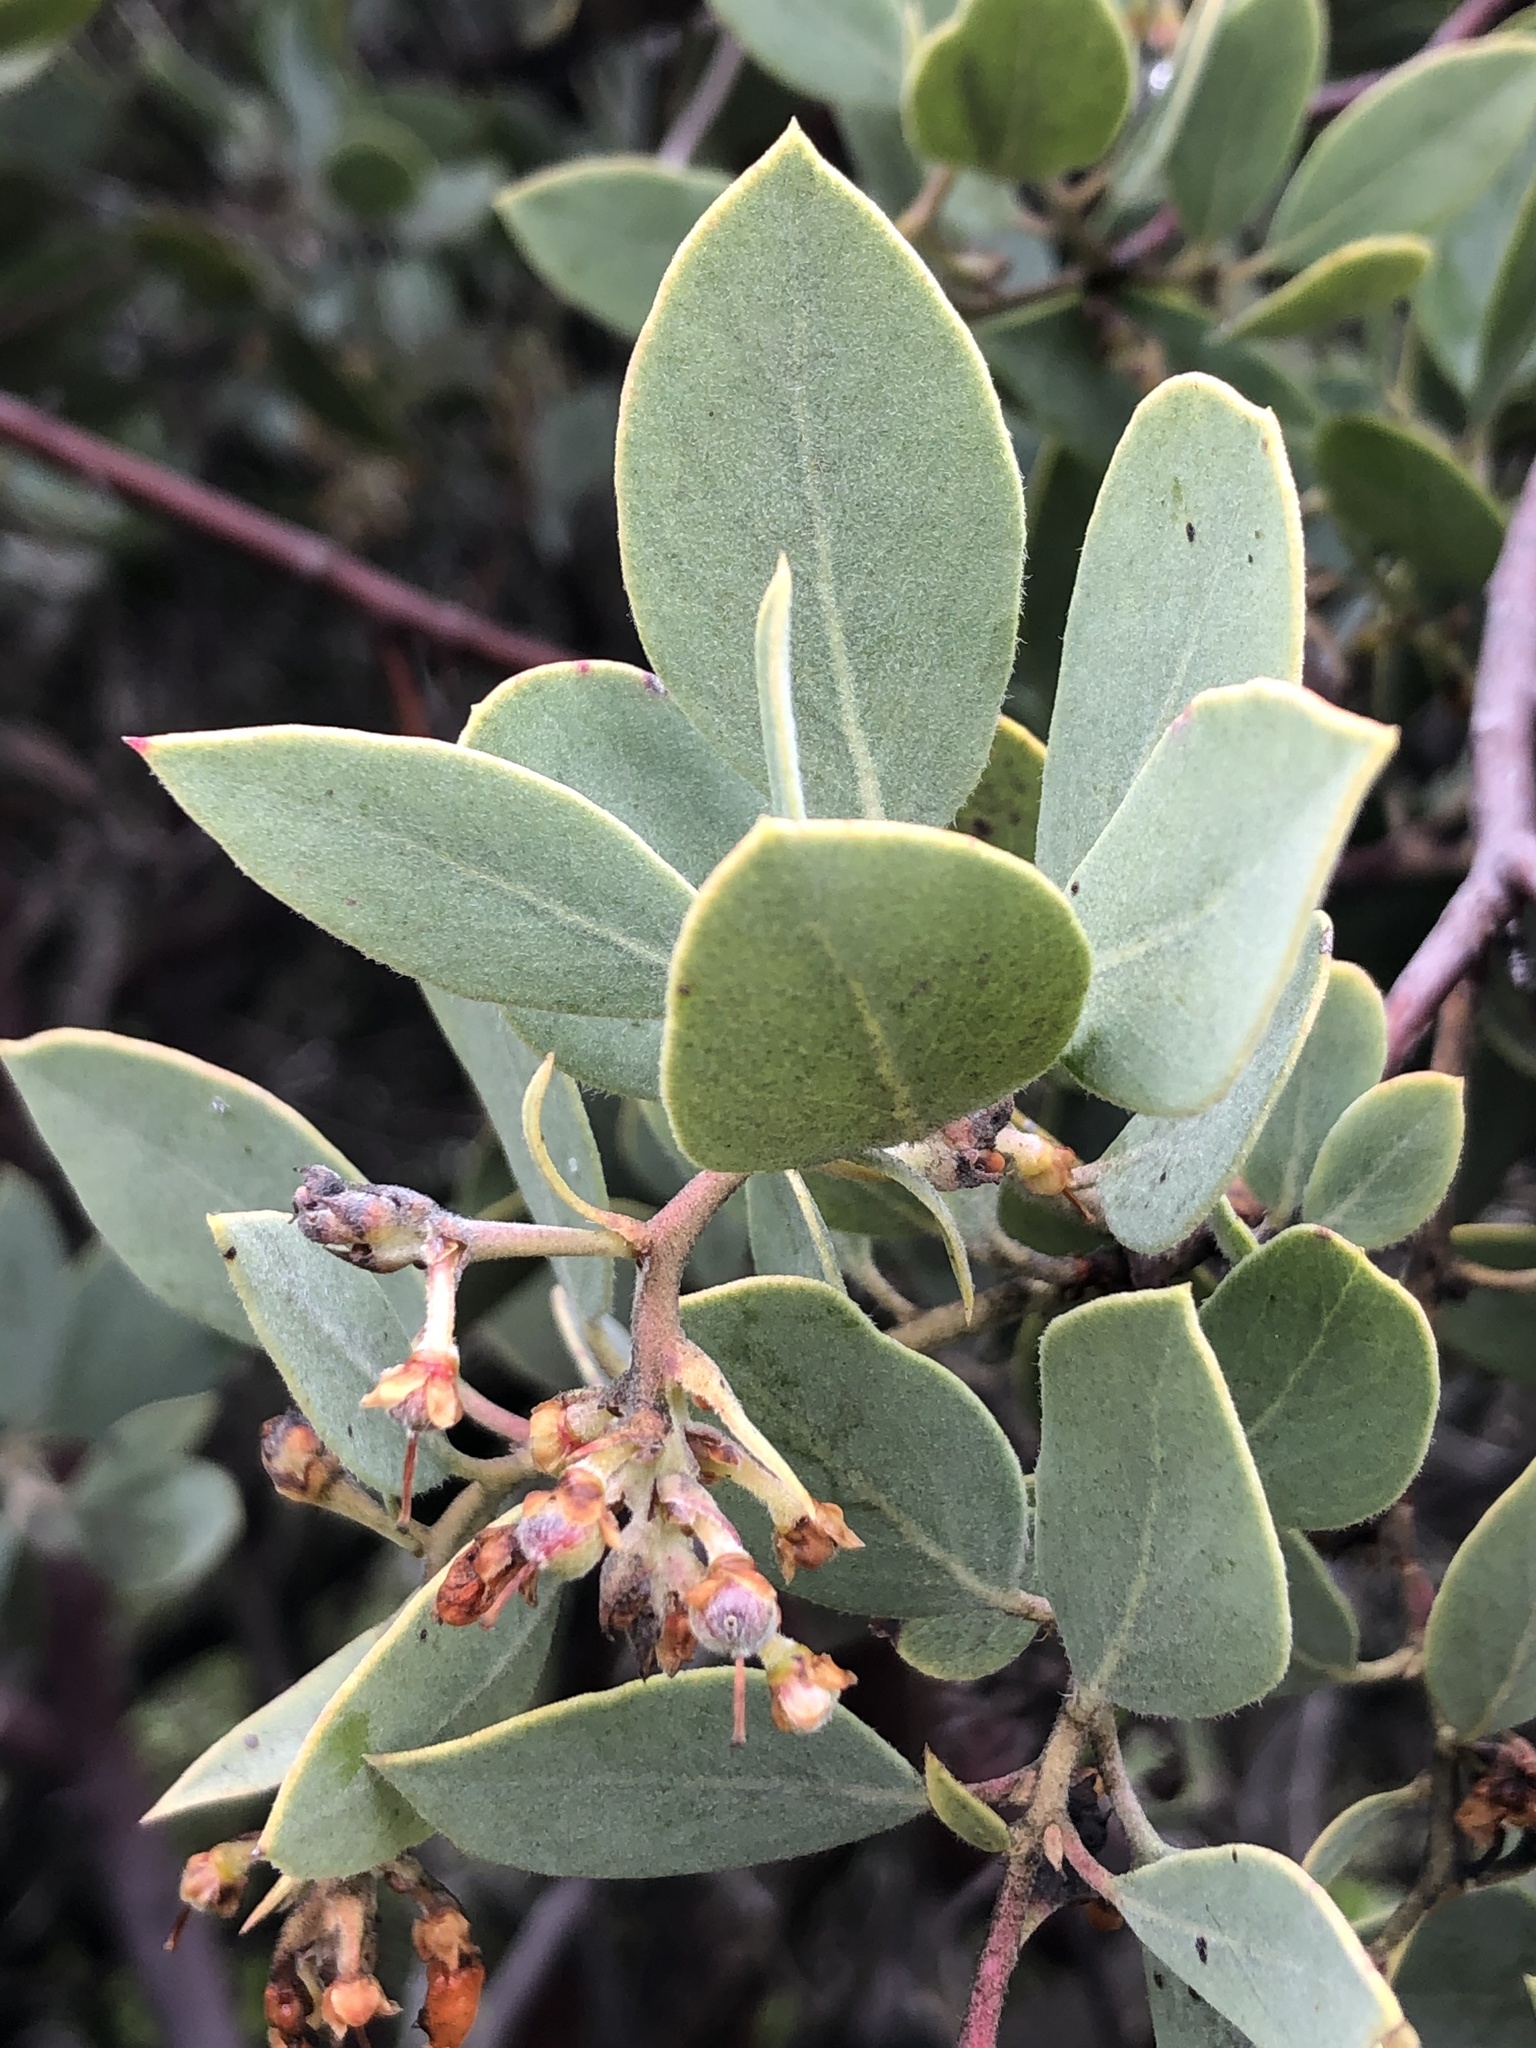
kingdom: Plantae
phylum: Tracheophyta
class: Magnoliopsida
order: Ericales
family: Ericaceae
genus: Arctostaphylos
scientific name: Arctostaphylos glandulosa
